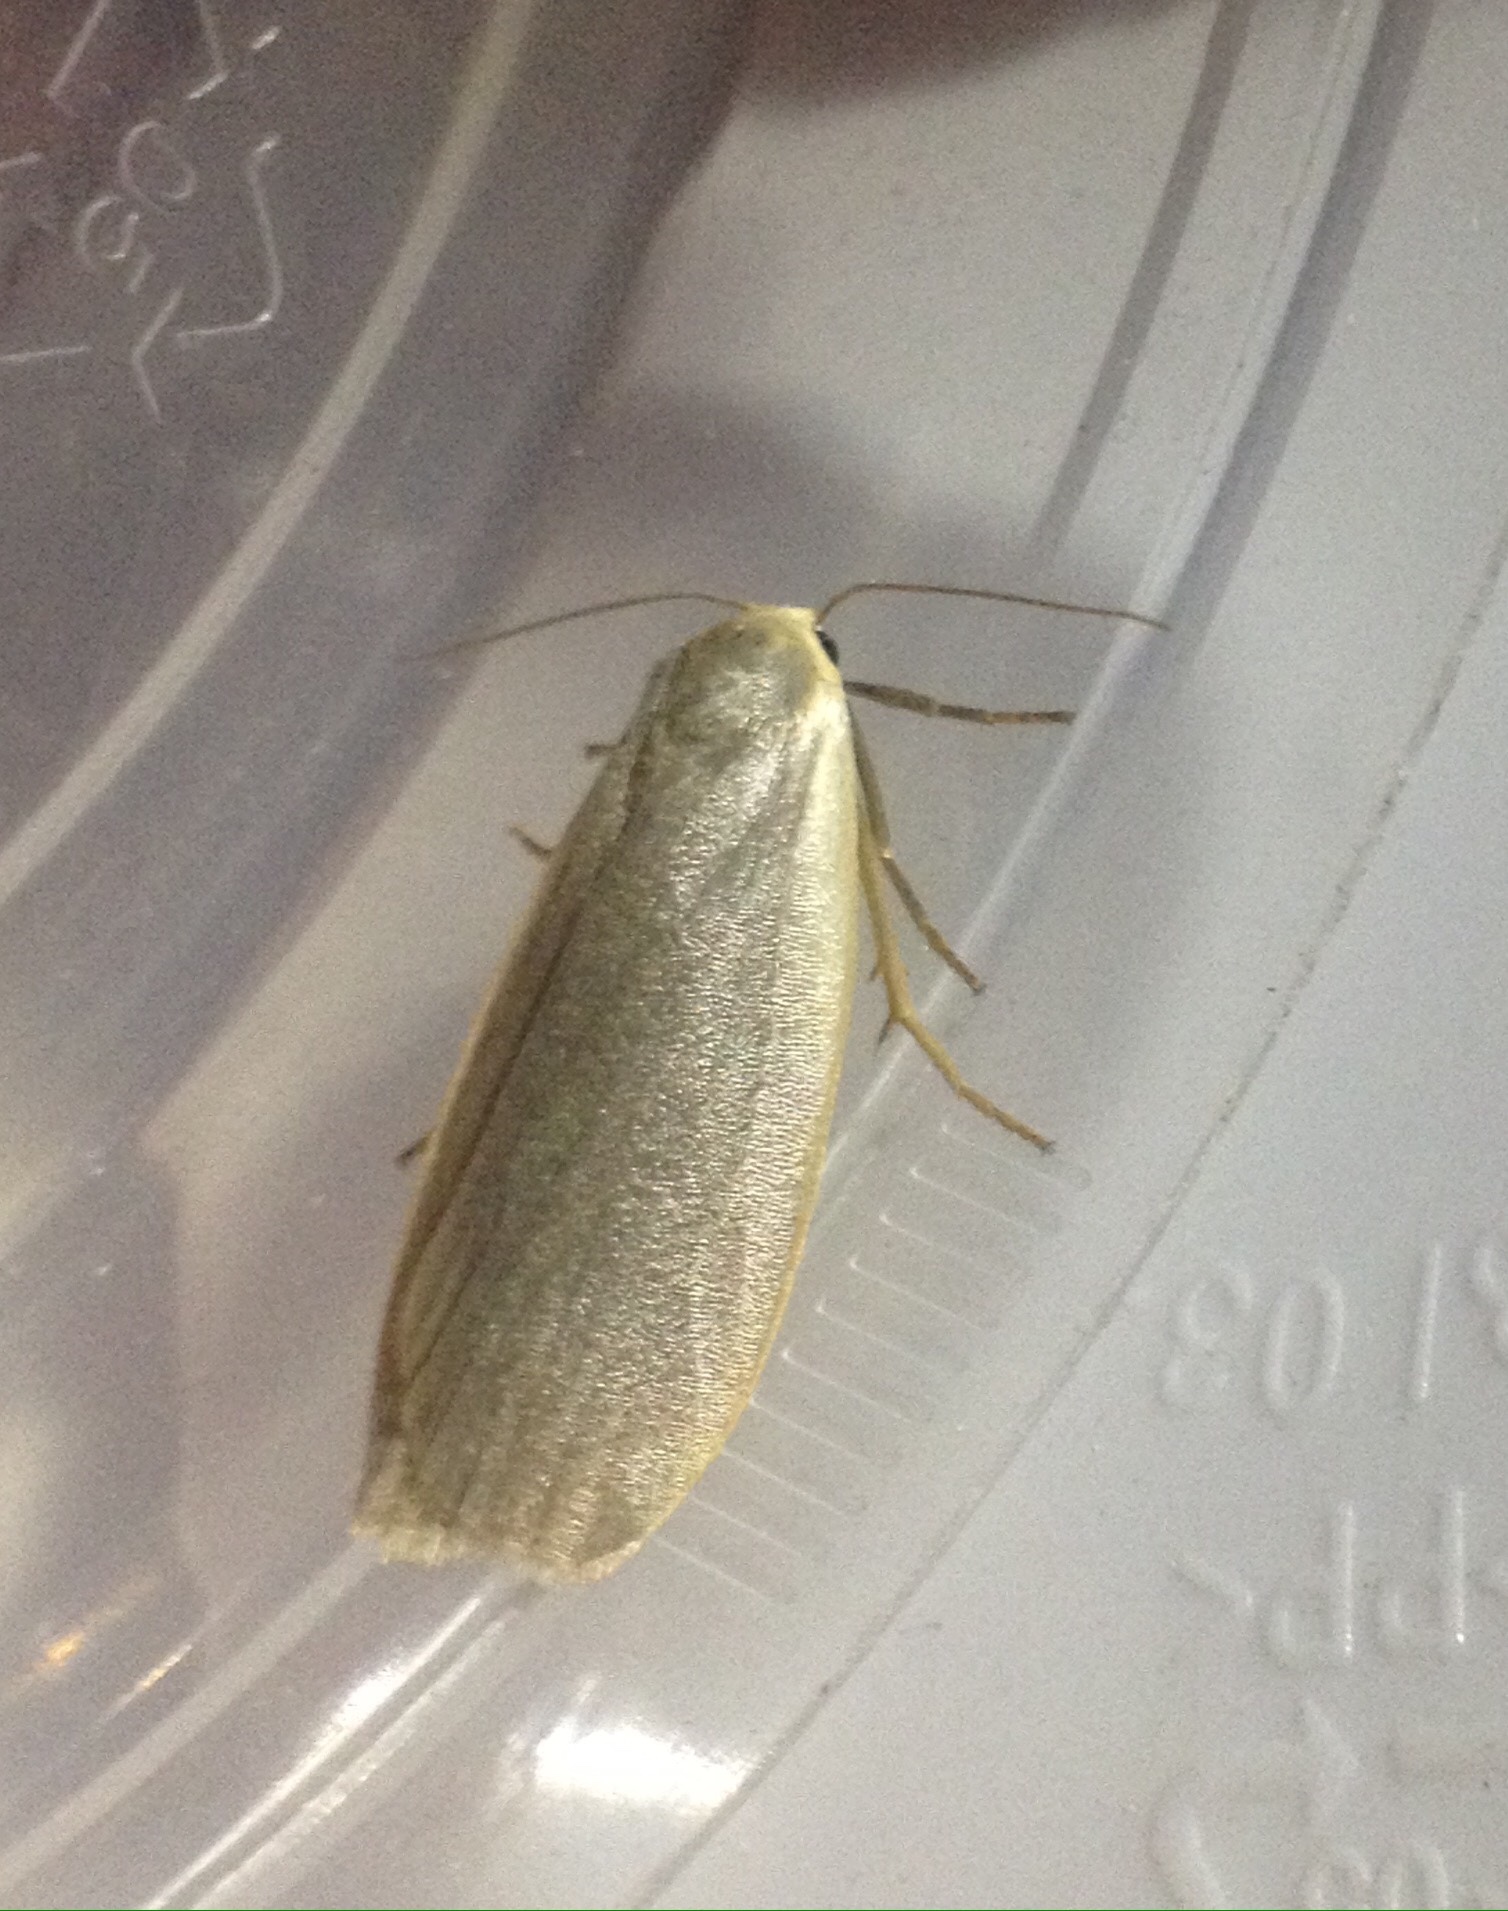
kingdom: Animalia
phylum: Arthropoda
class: Insecta
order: Lepidoptera
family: Erebidae
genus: Collita
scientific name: Collita griseola
